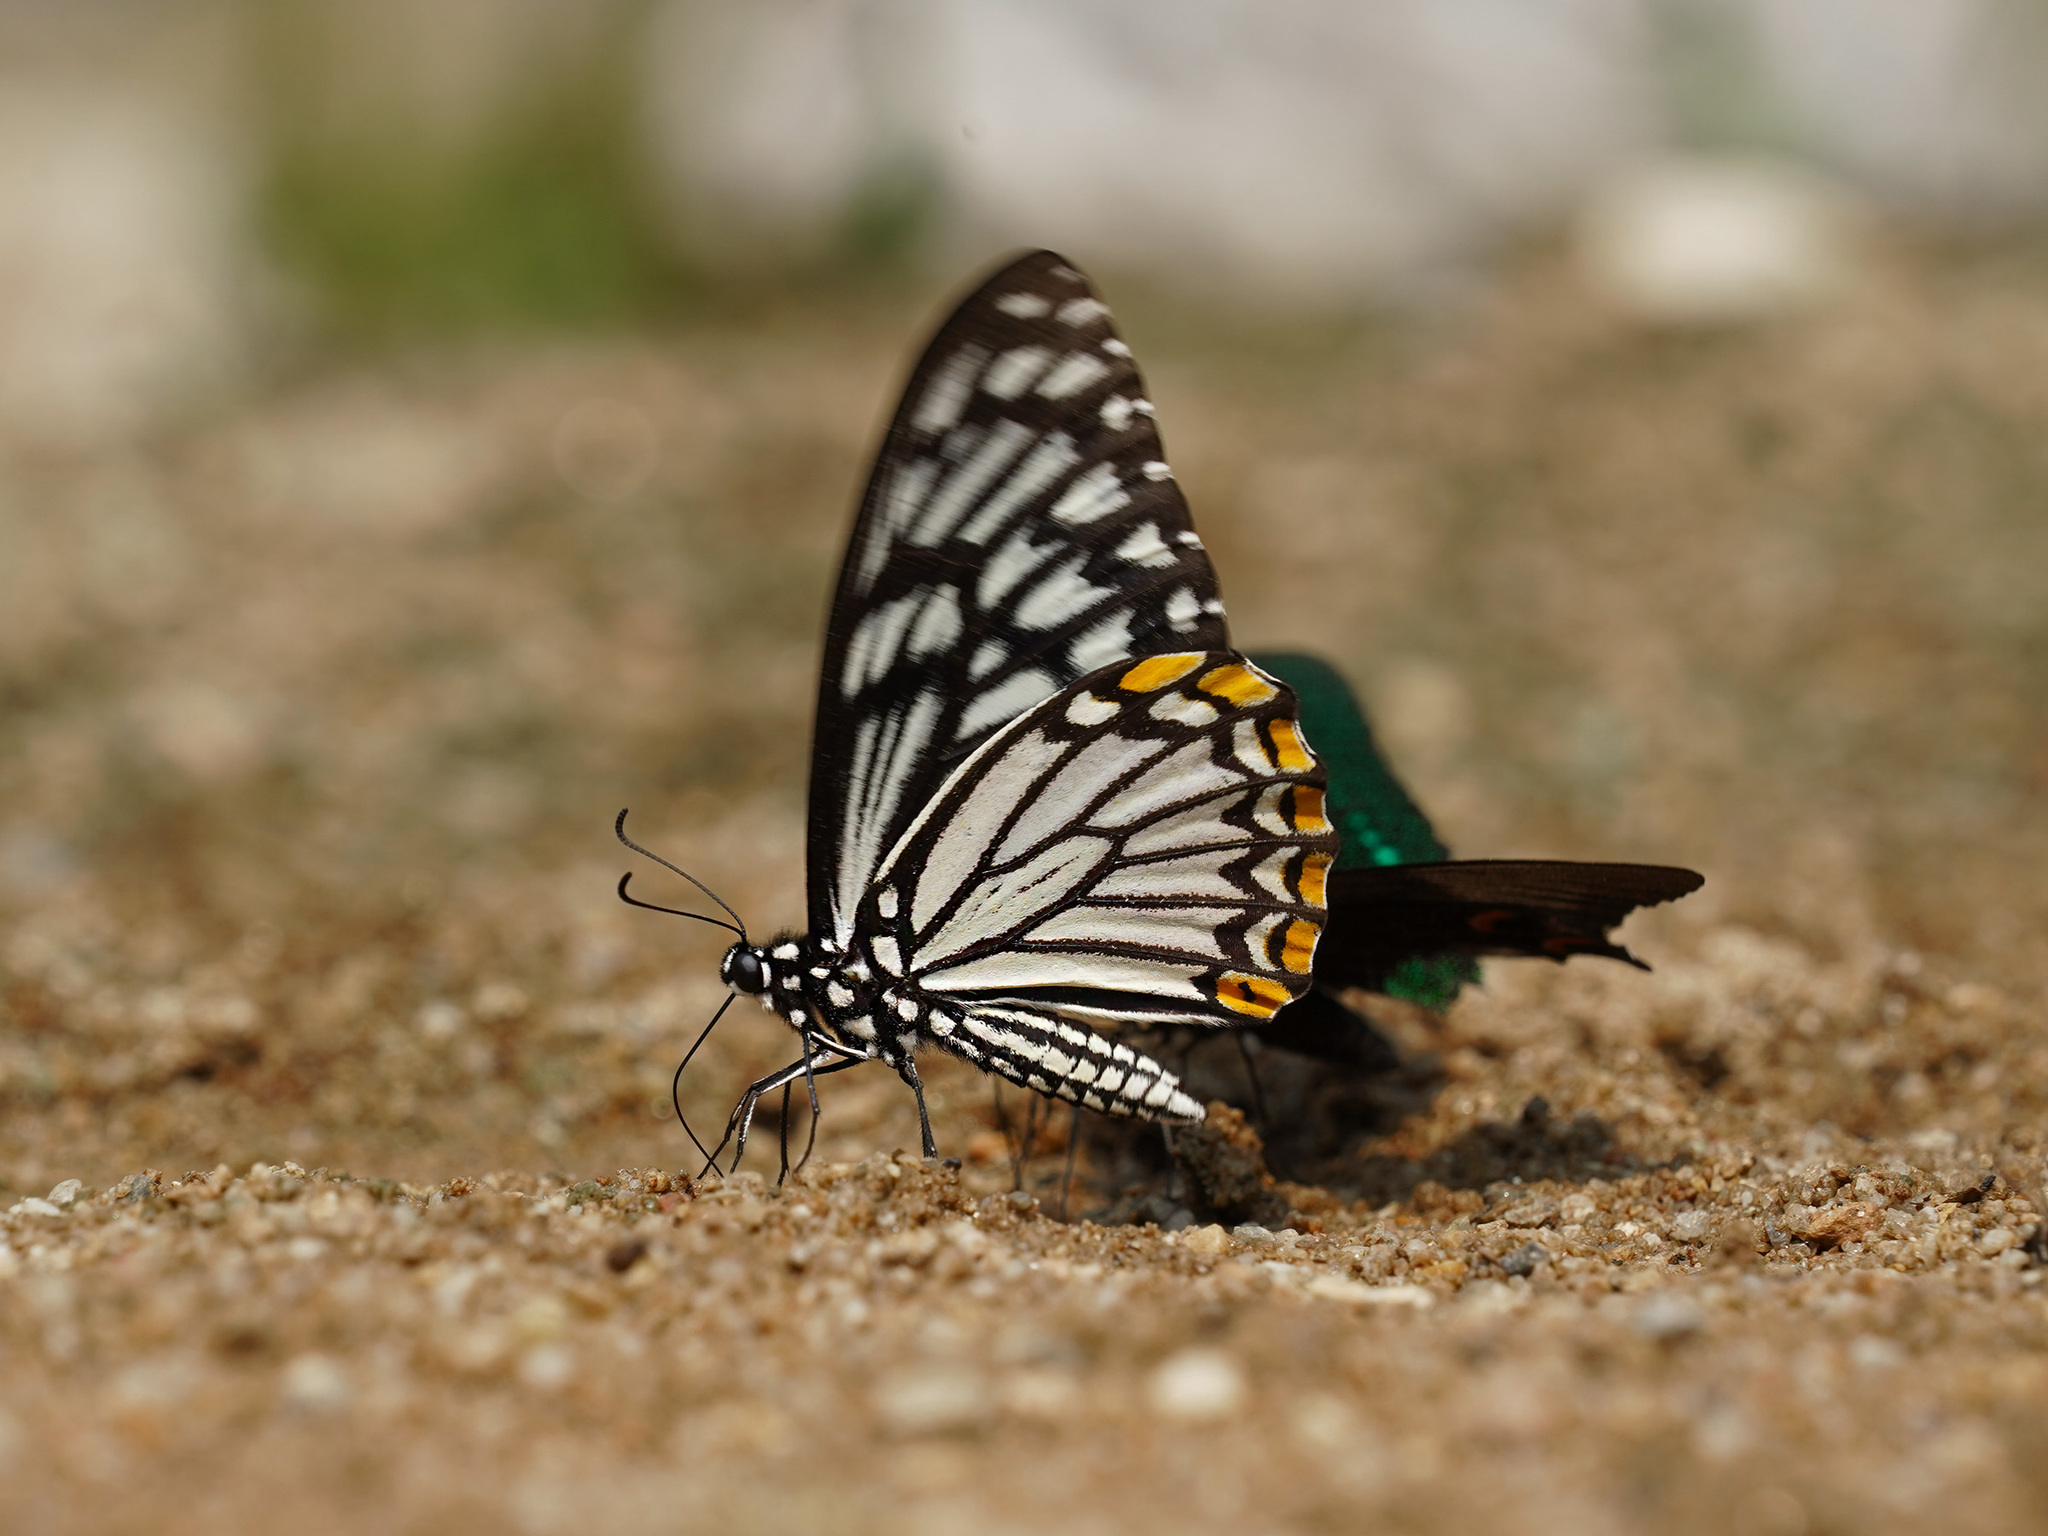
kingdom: Animalia
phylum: Arthropoda
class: Insecta
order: Lepidoptera
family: Papilionidae
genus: Chilasa
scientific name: Chilasa clytia
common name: Common mime
